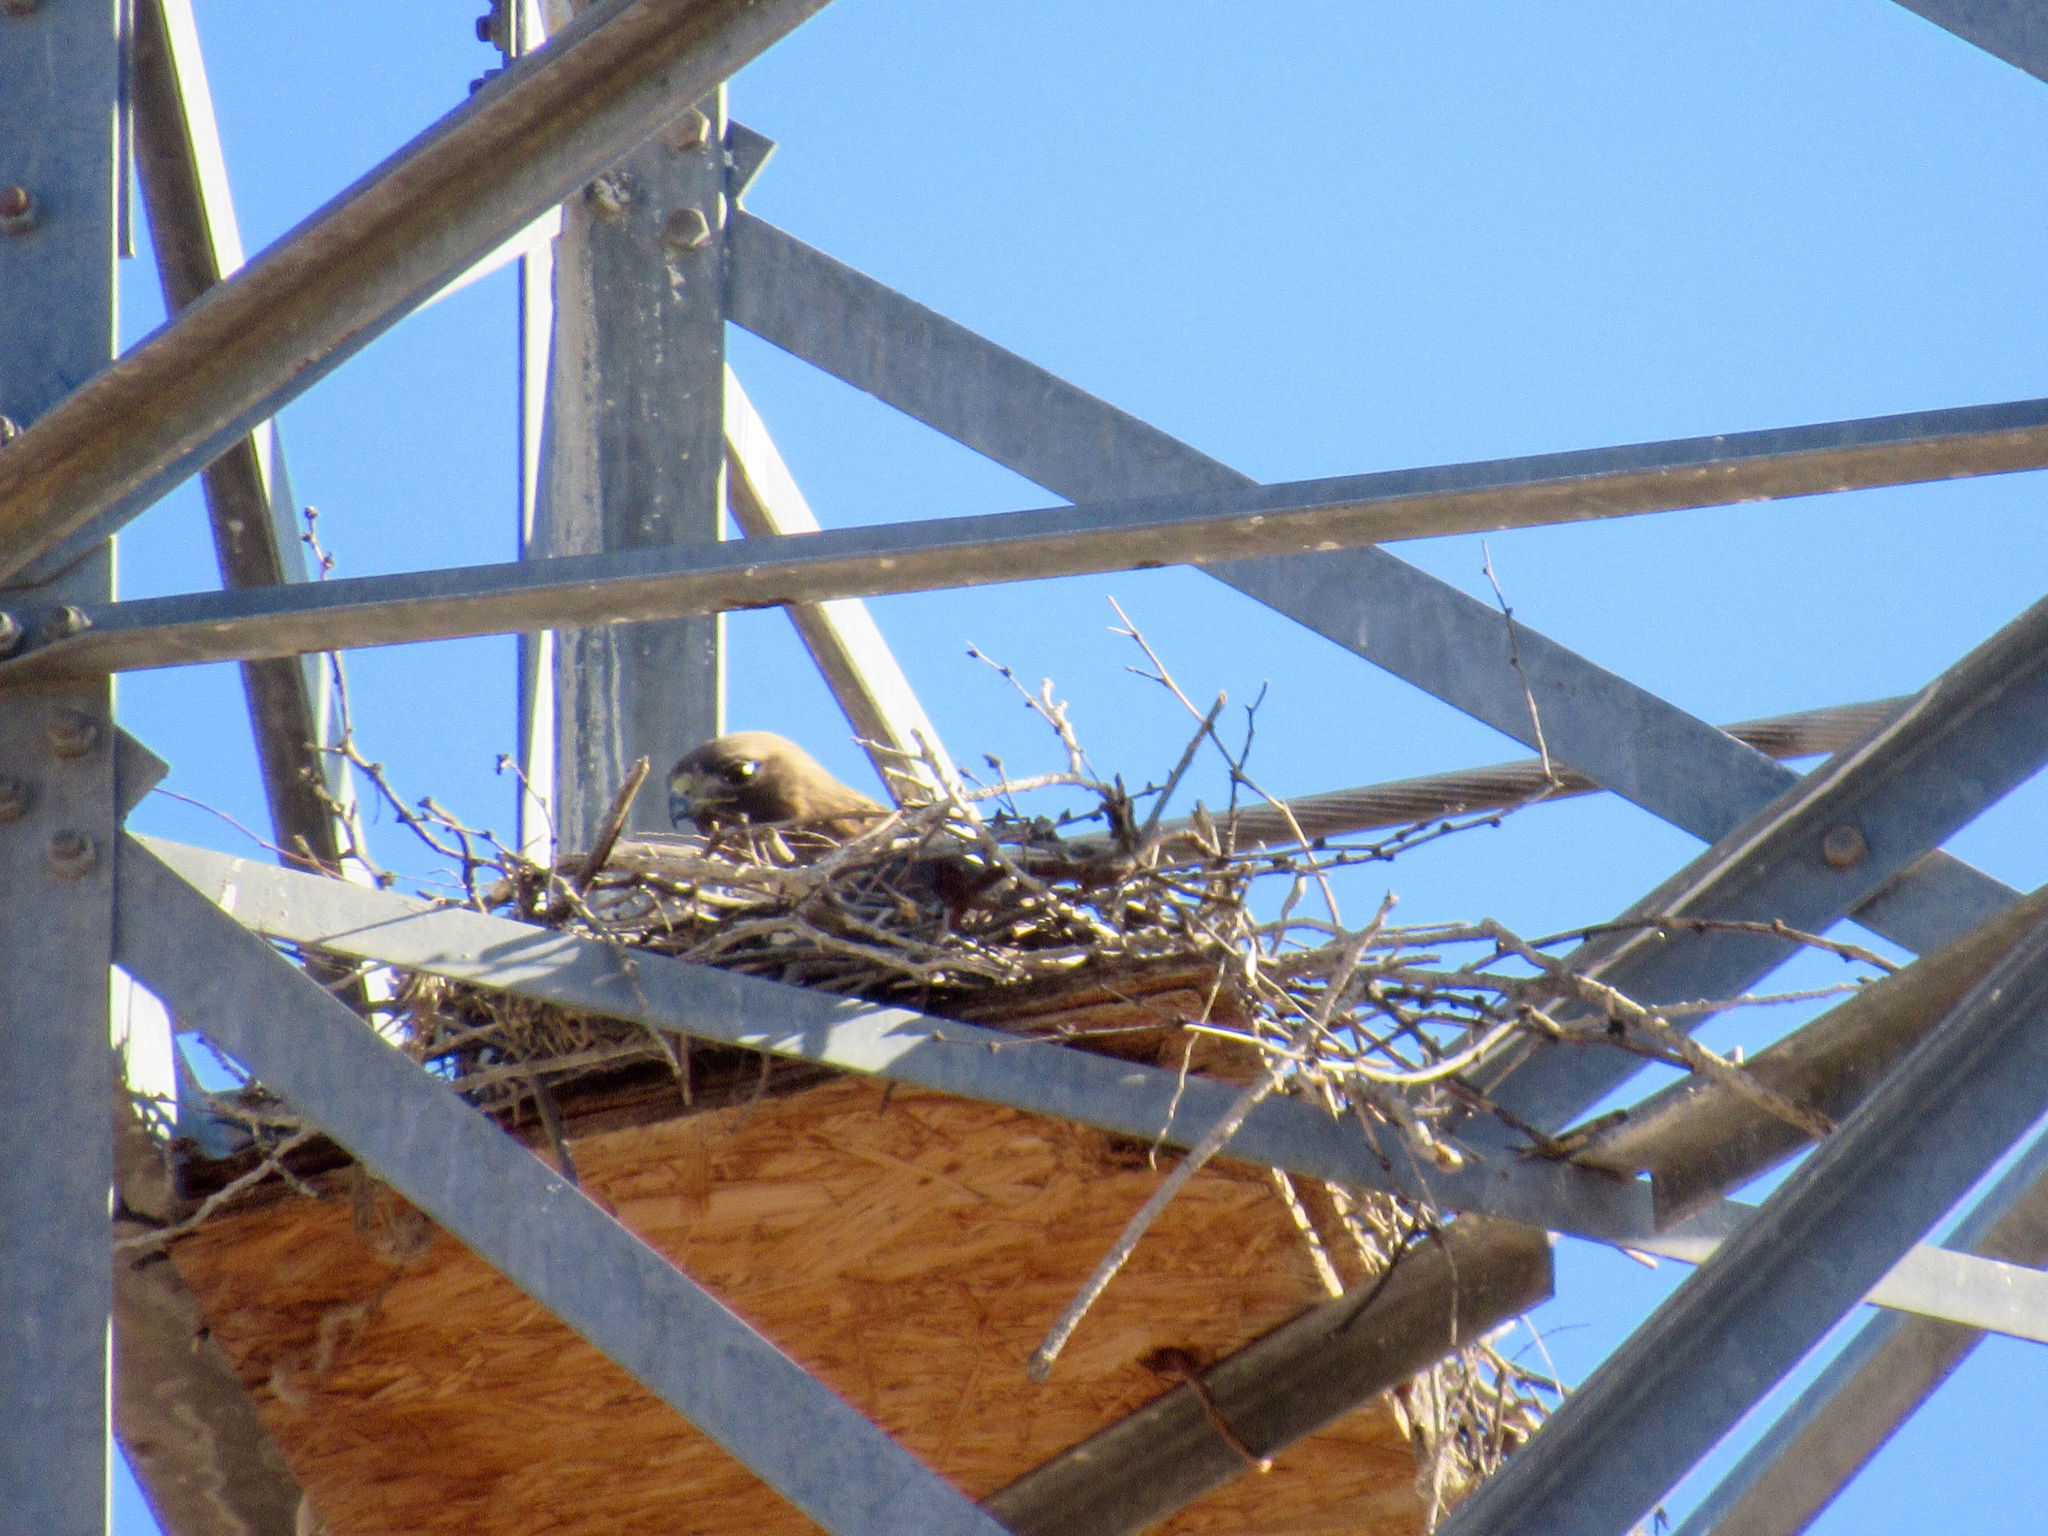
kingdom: Animalia
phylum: Chordata
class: Aves
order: Accipitriformes
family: Accipitridae
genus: Buteo
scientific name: Buteo jamaicensis
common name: Red-tailed hawk
